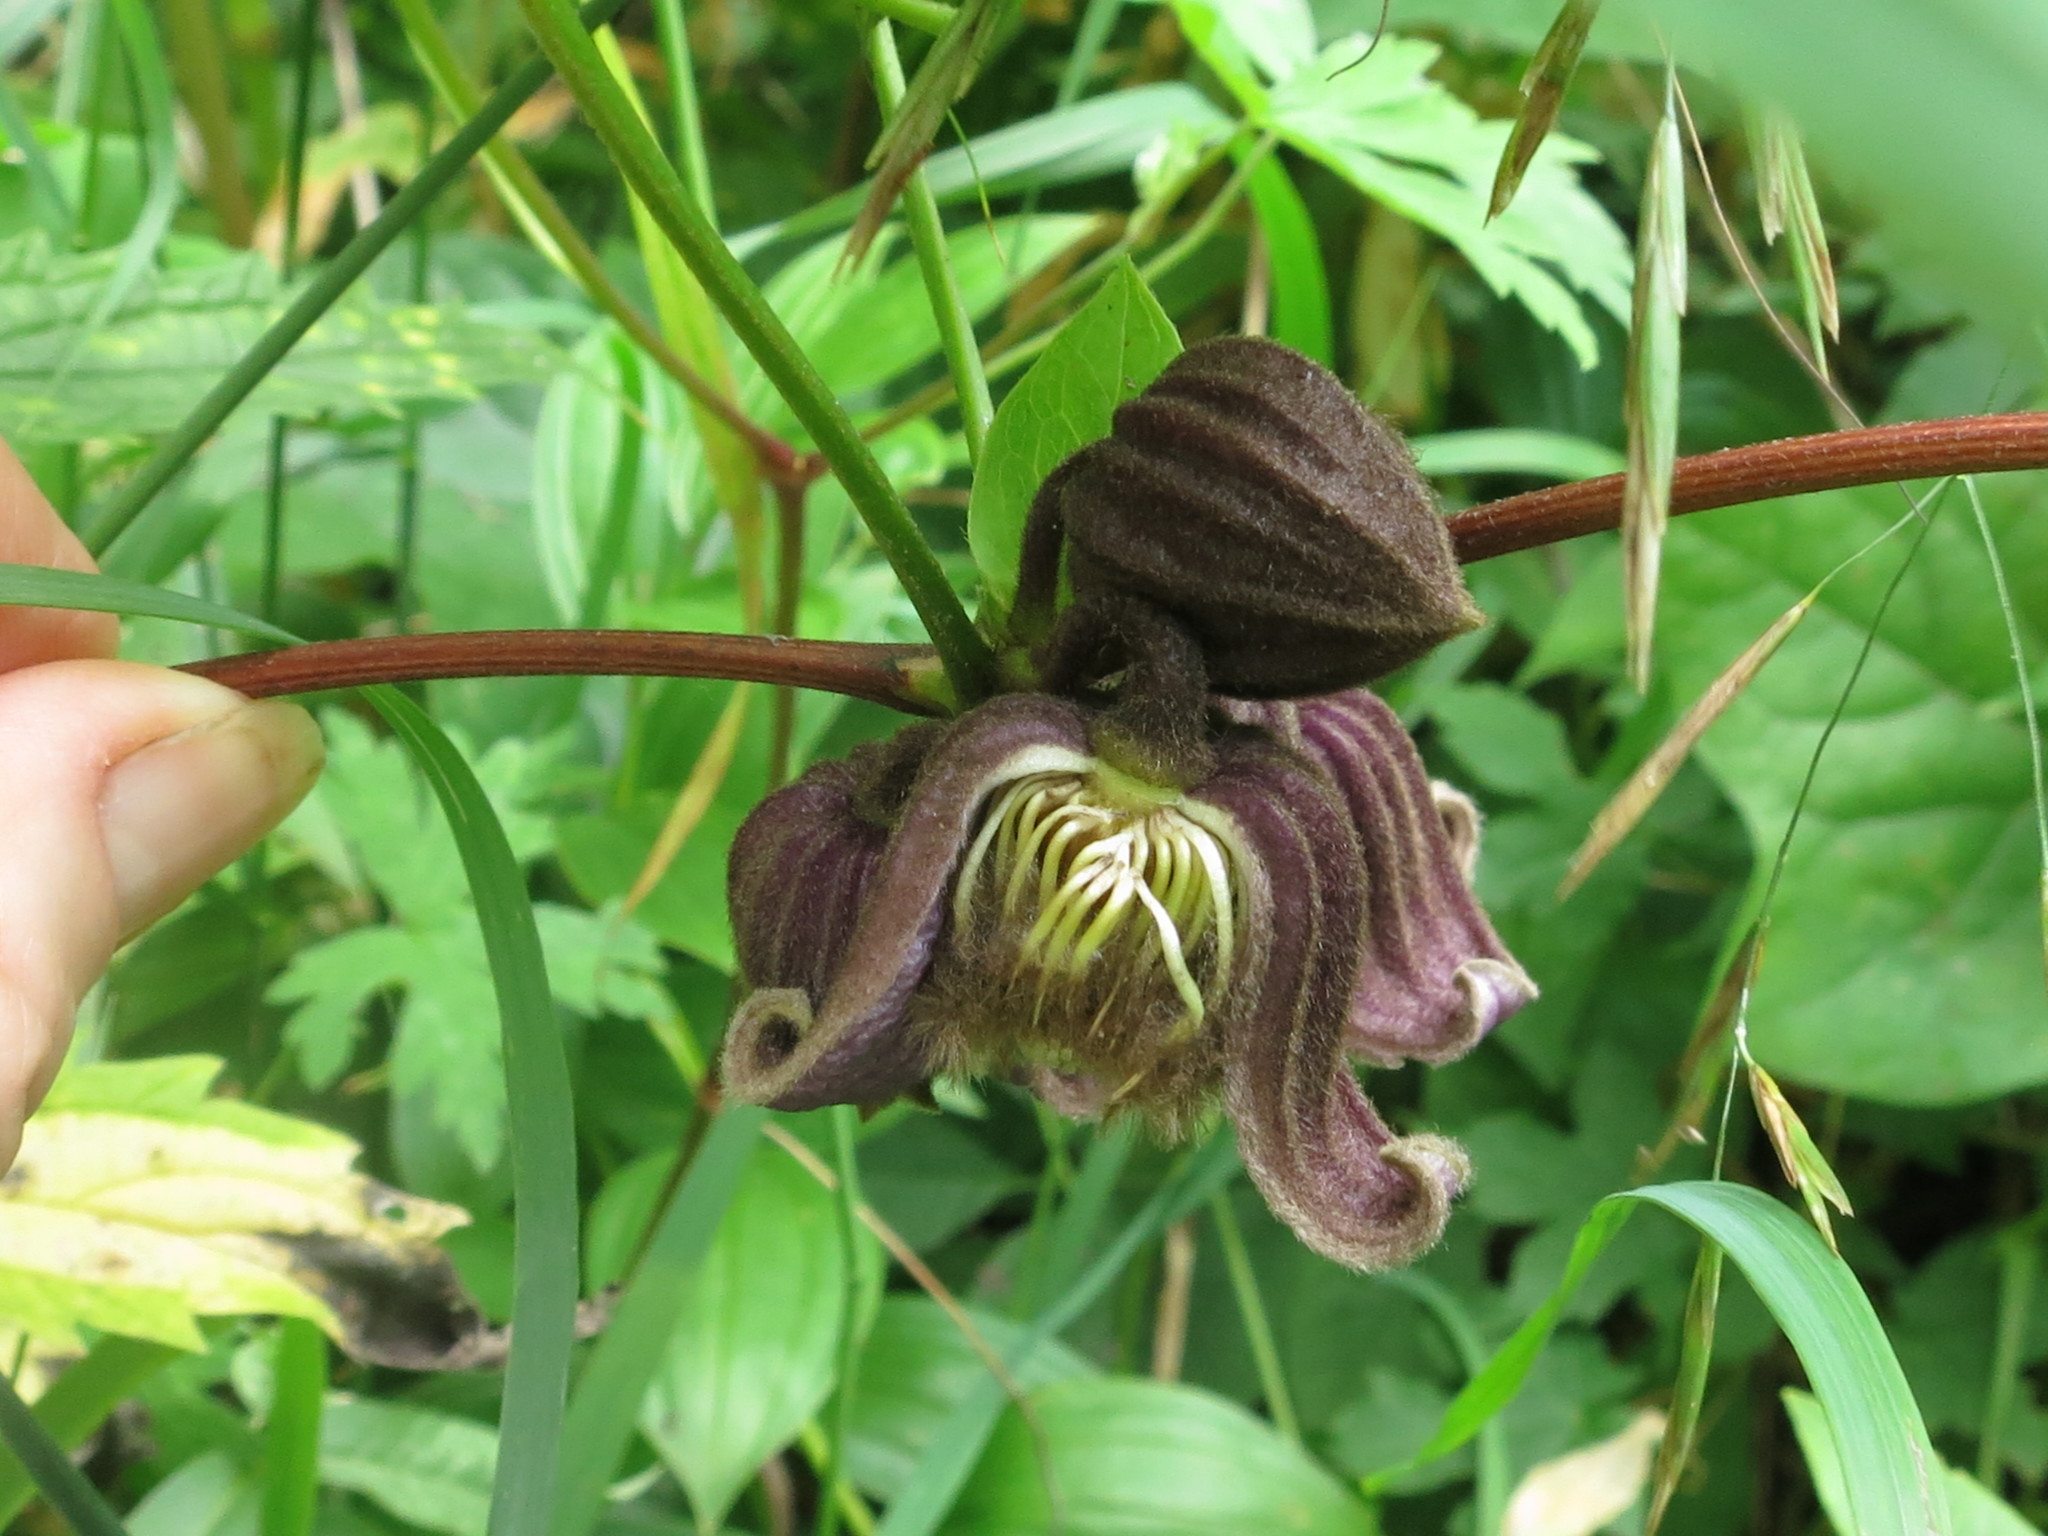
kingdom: Plantae
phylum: Tracheophyta
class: Magnoliopsida
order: Ranunculales
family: Ranunculaceae
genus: Clematis
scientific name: Clematis fusca
